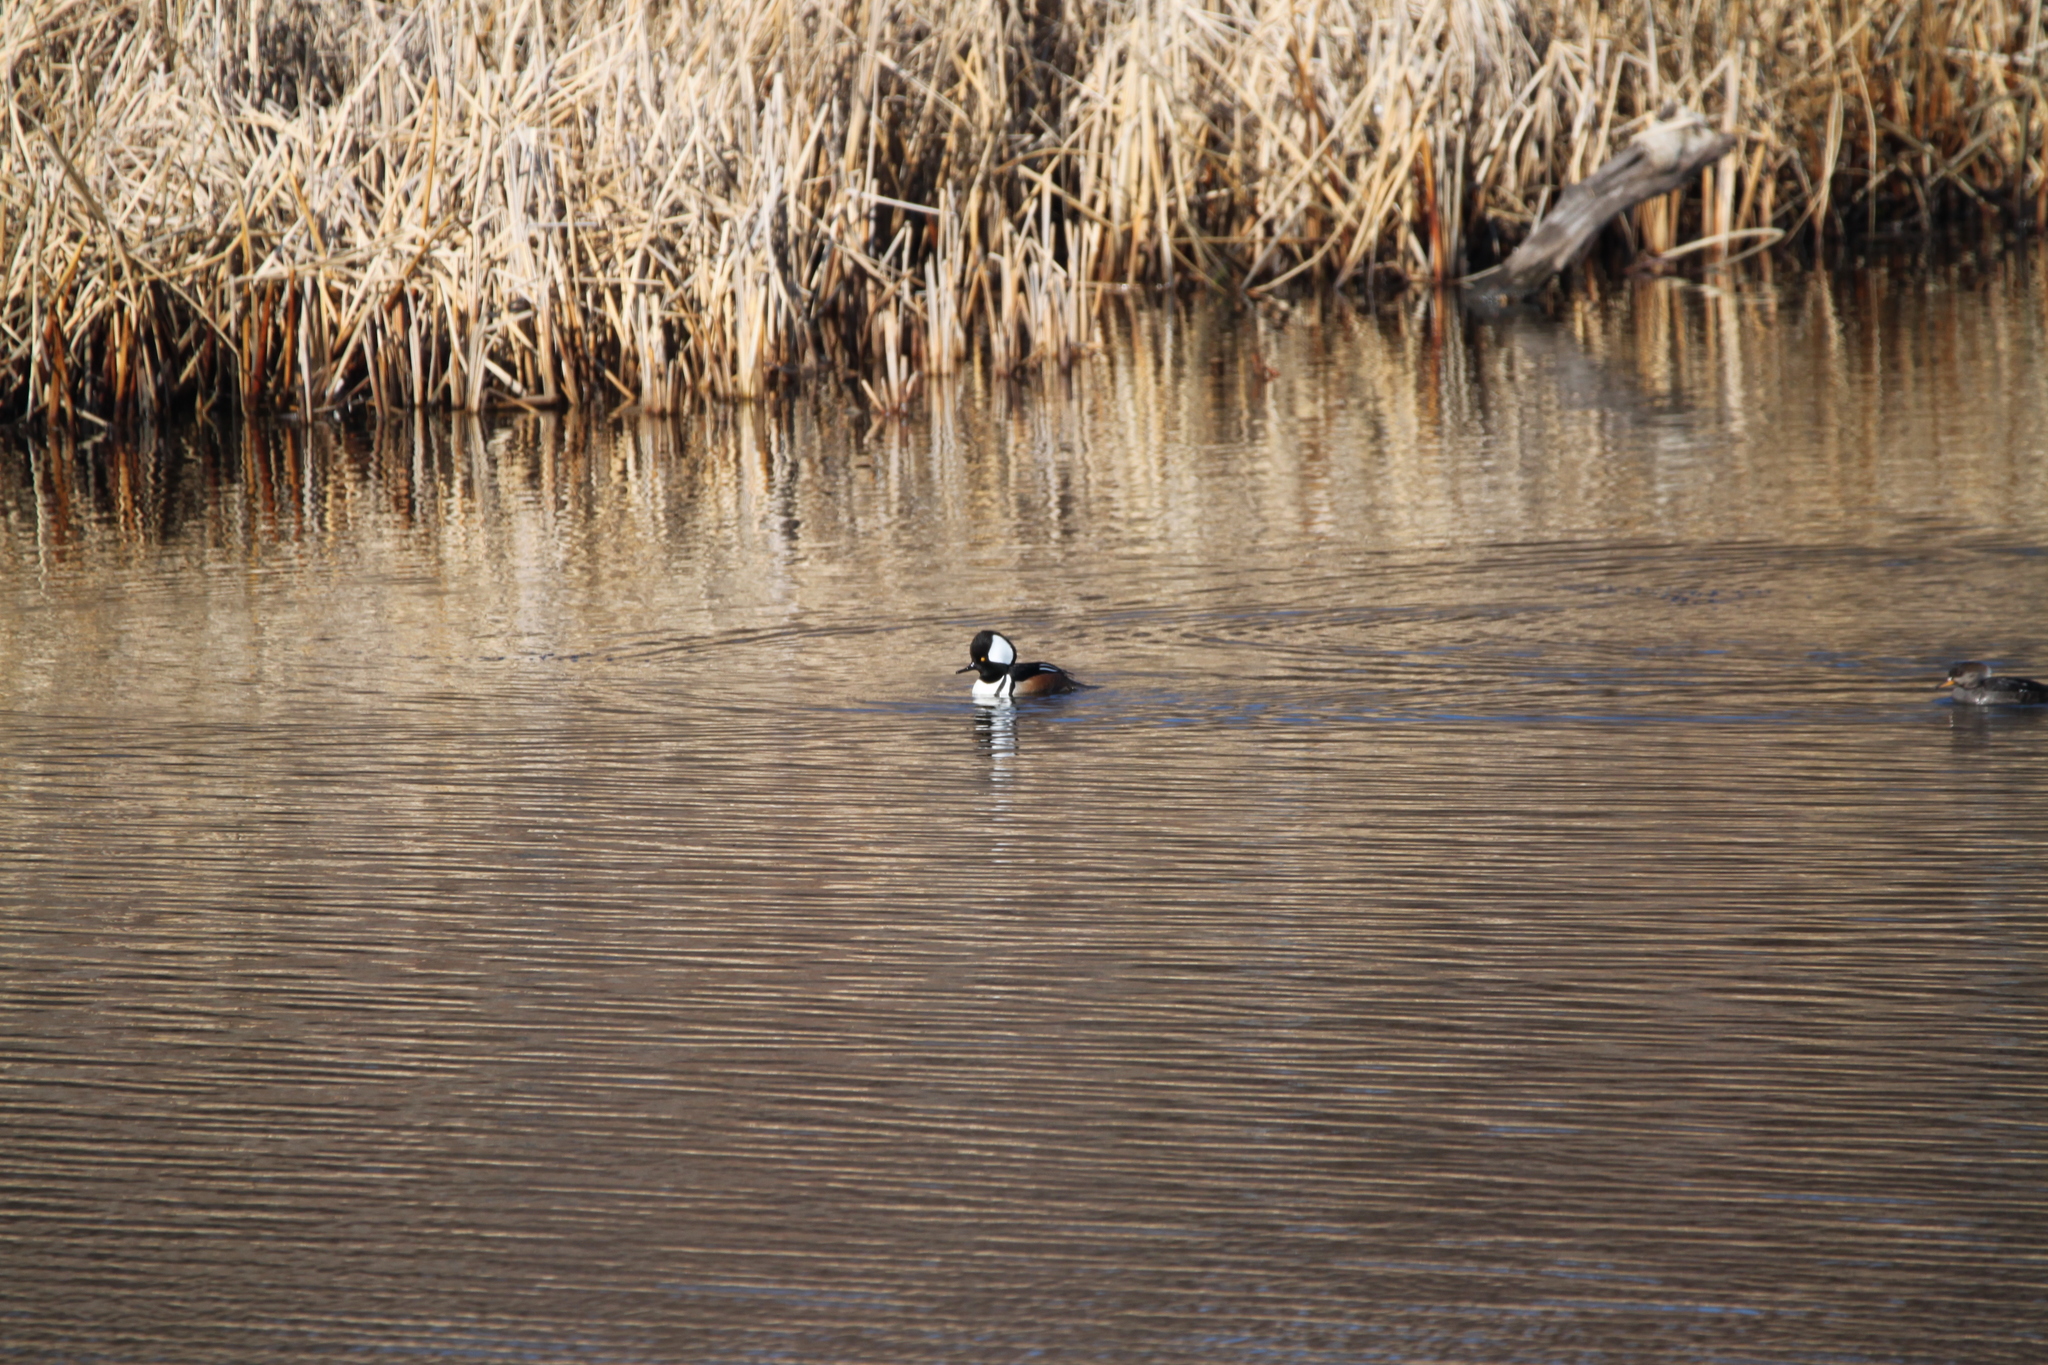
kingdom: Animalia
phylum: Chordata
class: Aves
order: Anseriformes
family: Anatidae
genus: Lophodytes
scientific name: Lophodytes cucullatus
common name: Hooded merganser
